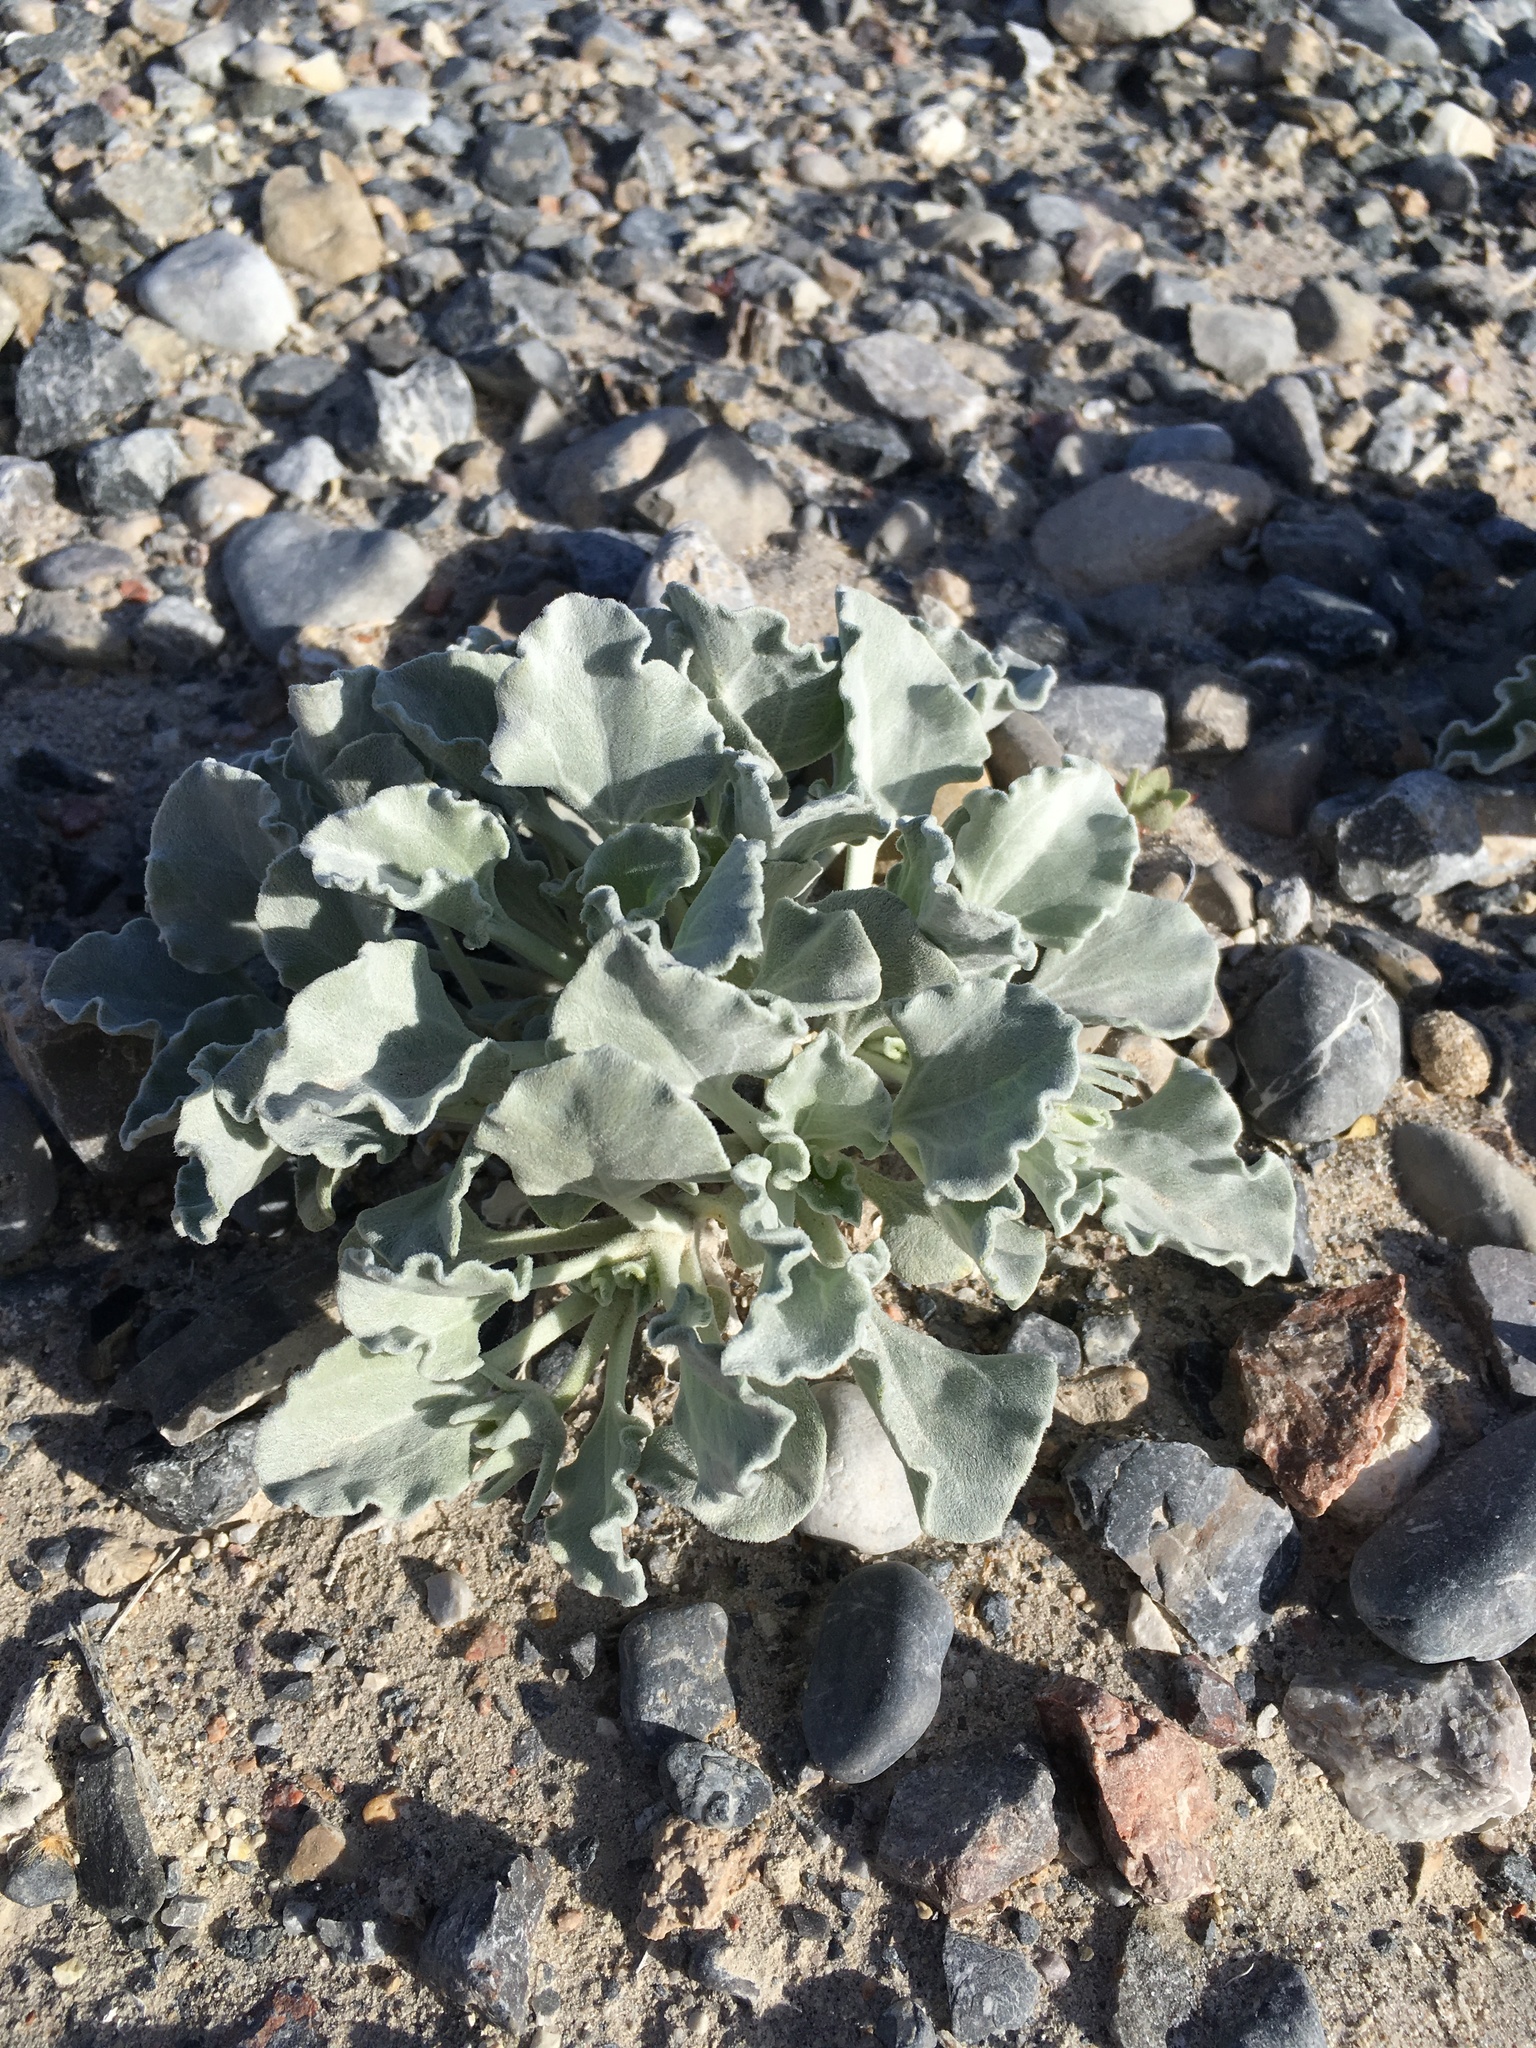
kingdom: Plantae
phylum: Tracheophyta
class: Magnoliopsida
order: Asterales
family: Asteraceae
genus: Enceliopsis
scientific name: Enceliopsis nudicaulis
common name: Naked-stem daisy
